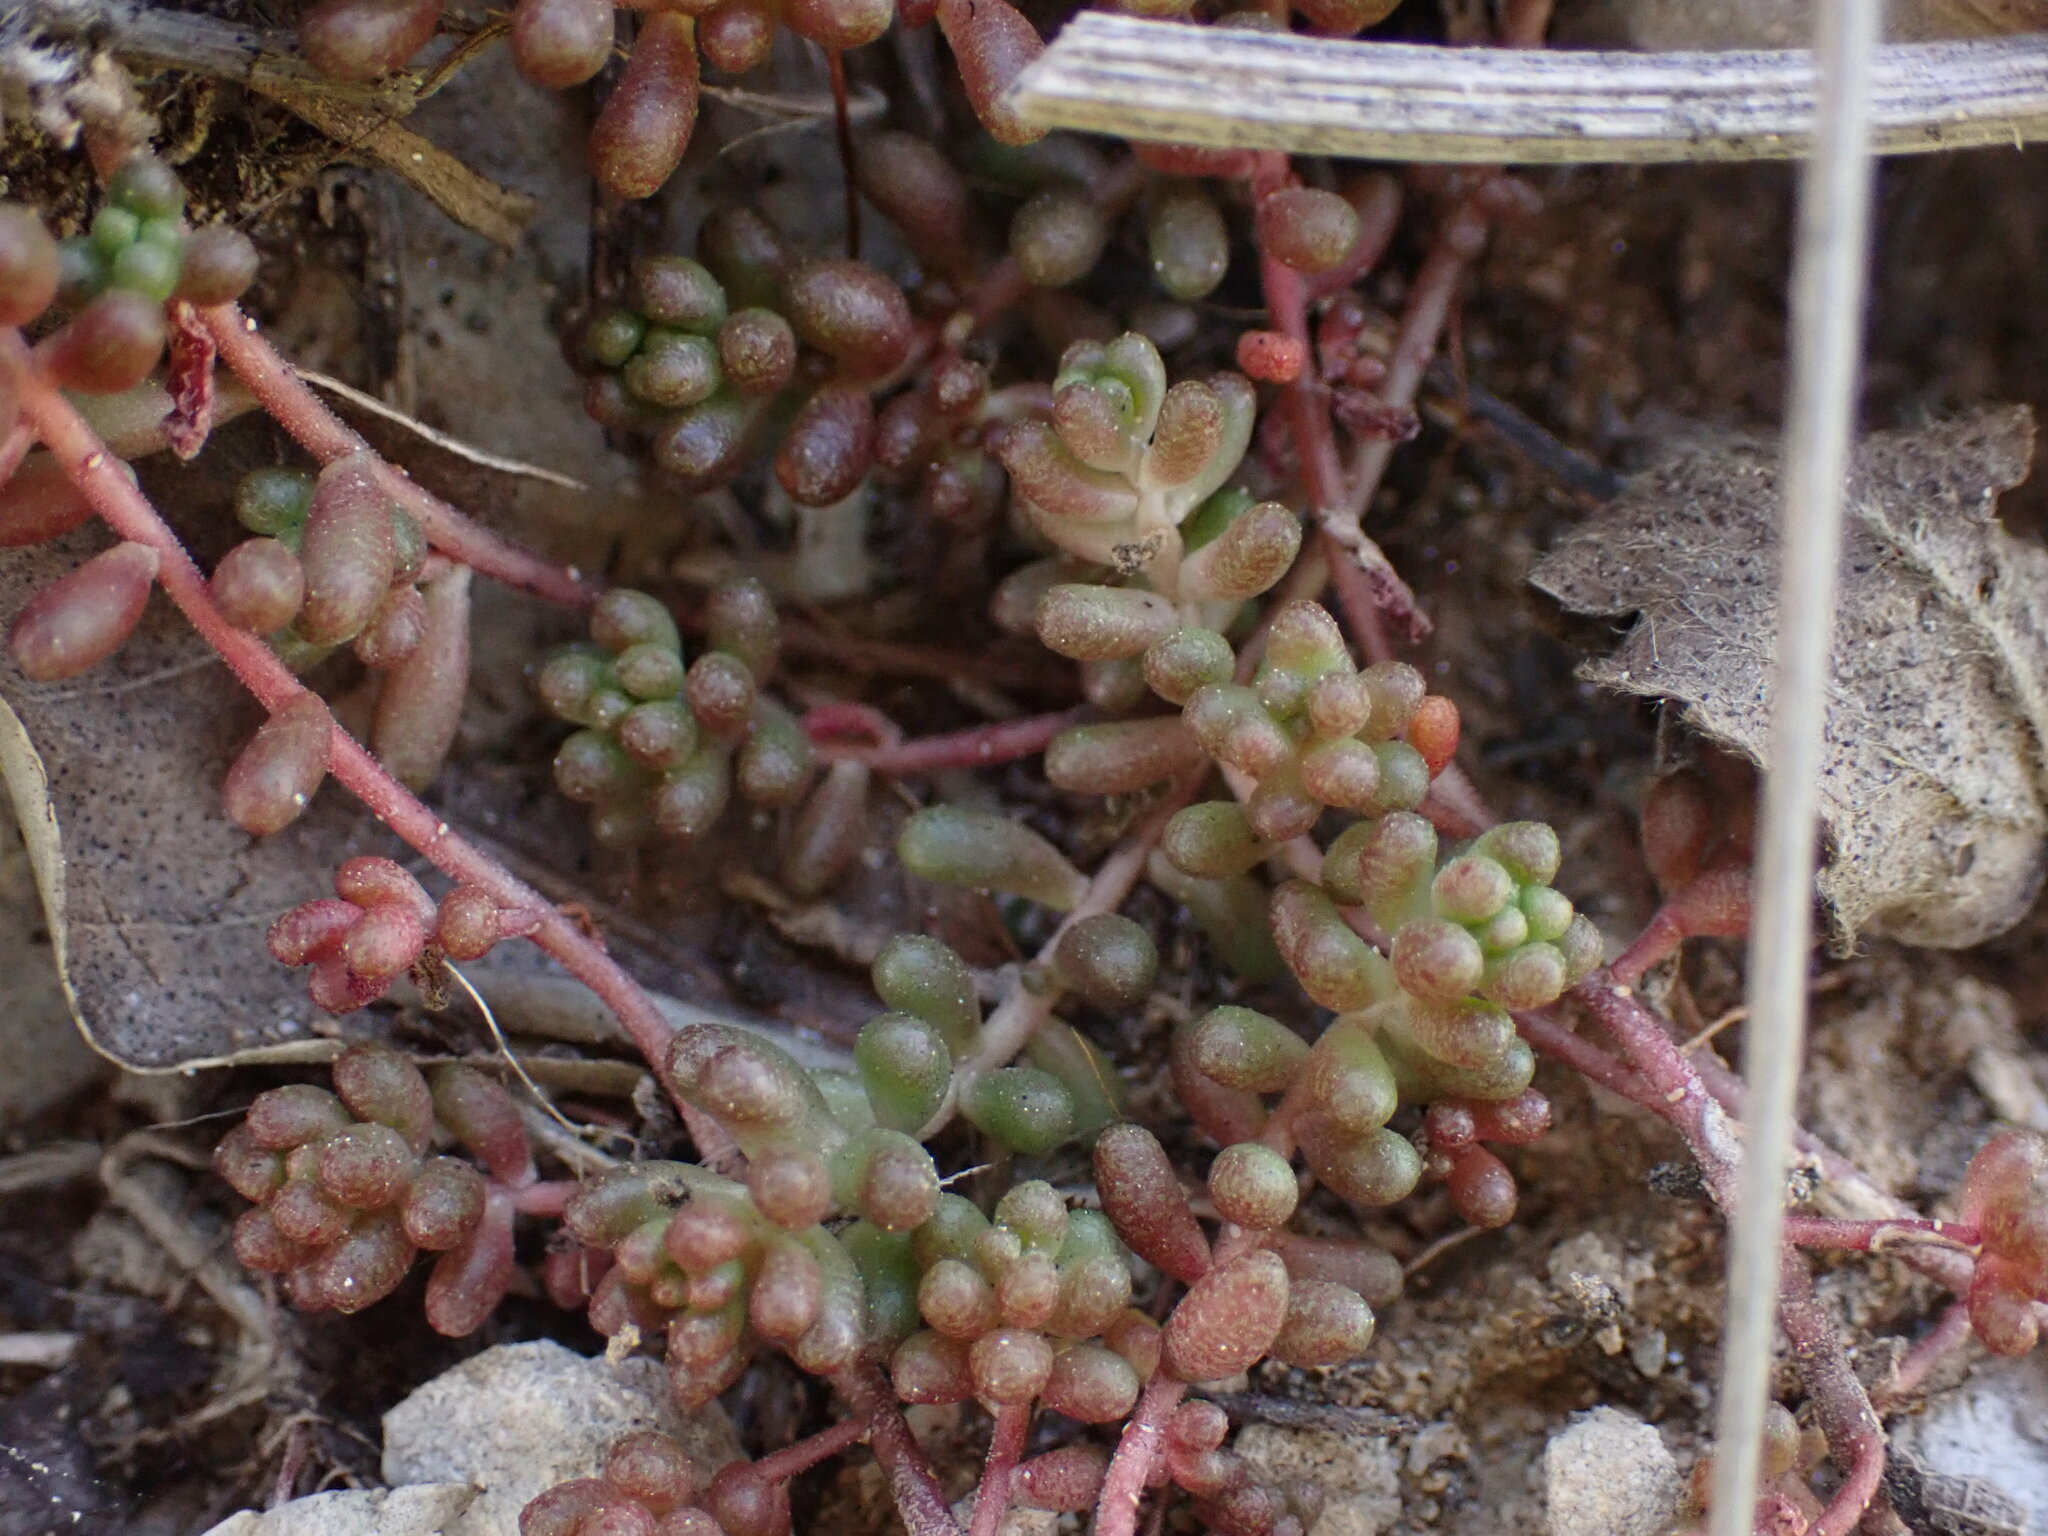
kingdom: Plantae
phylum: Tracheophyta
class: Magnoliopsida
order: Saxifragales
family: Crassulaceae
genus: Sedum
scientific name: Sedum album
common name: White stonecrop
